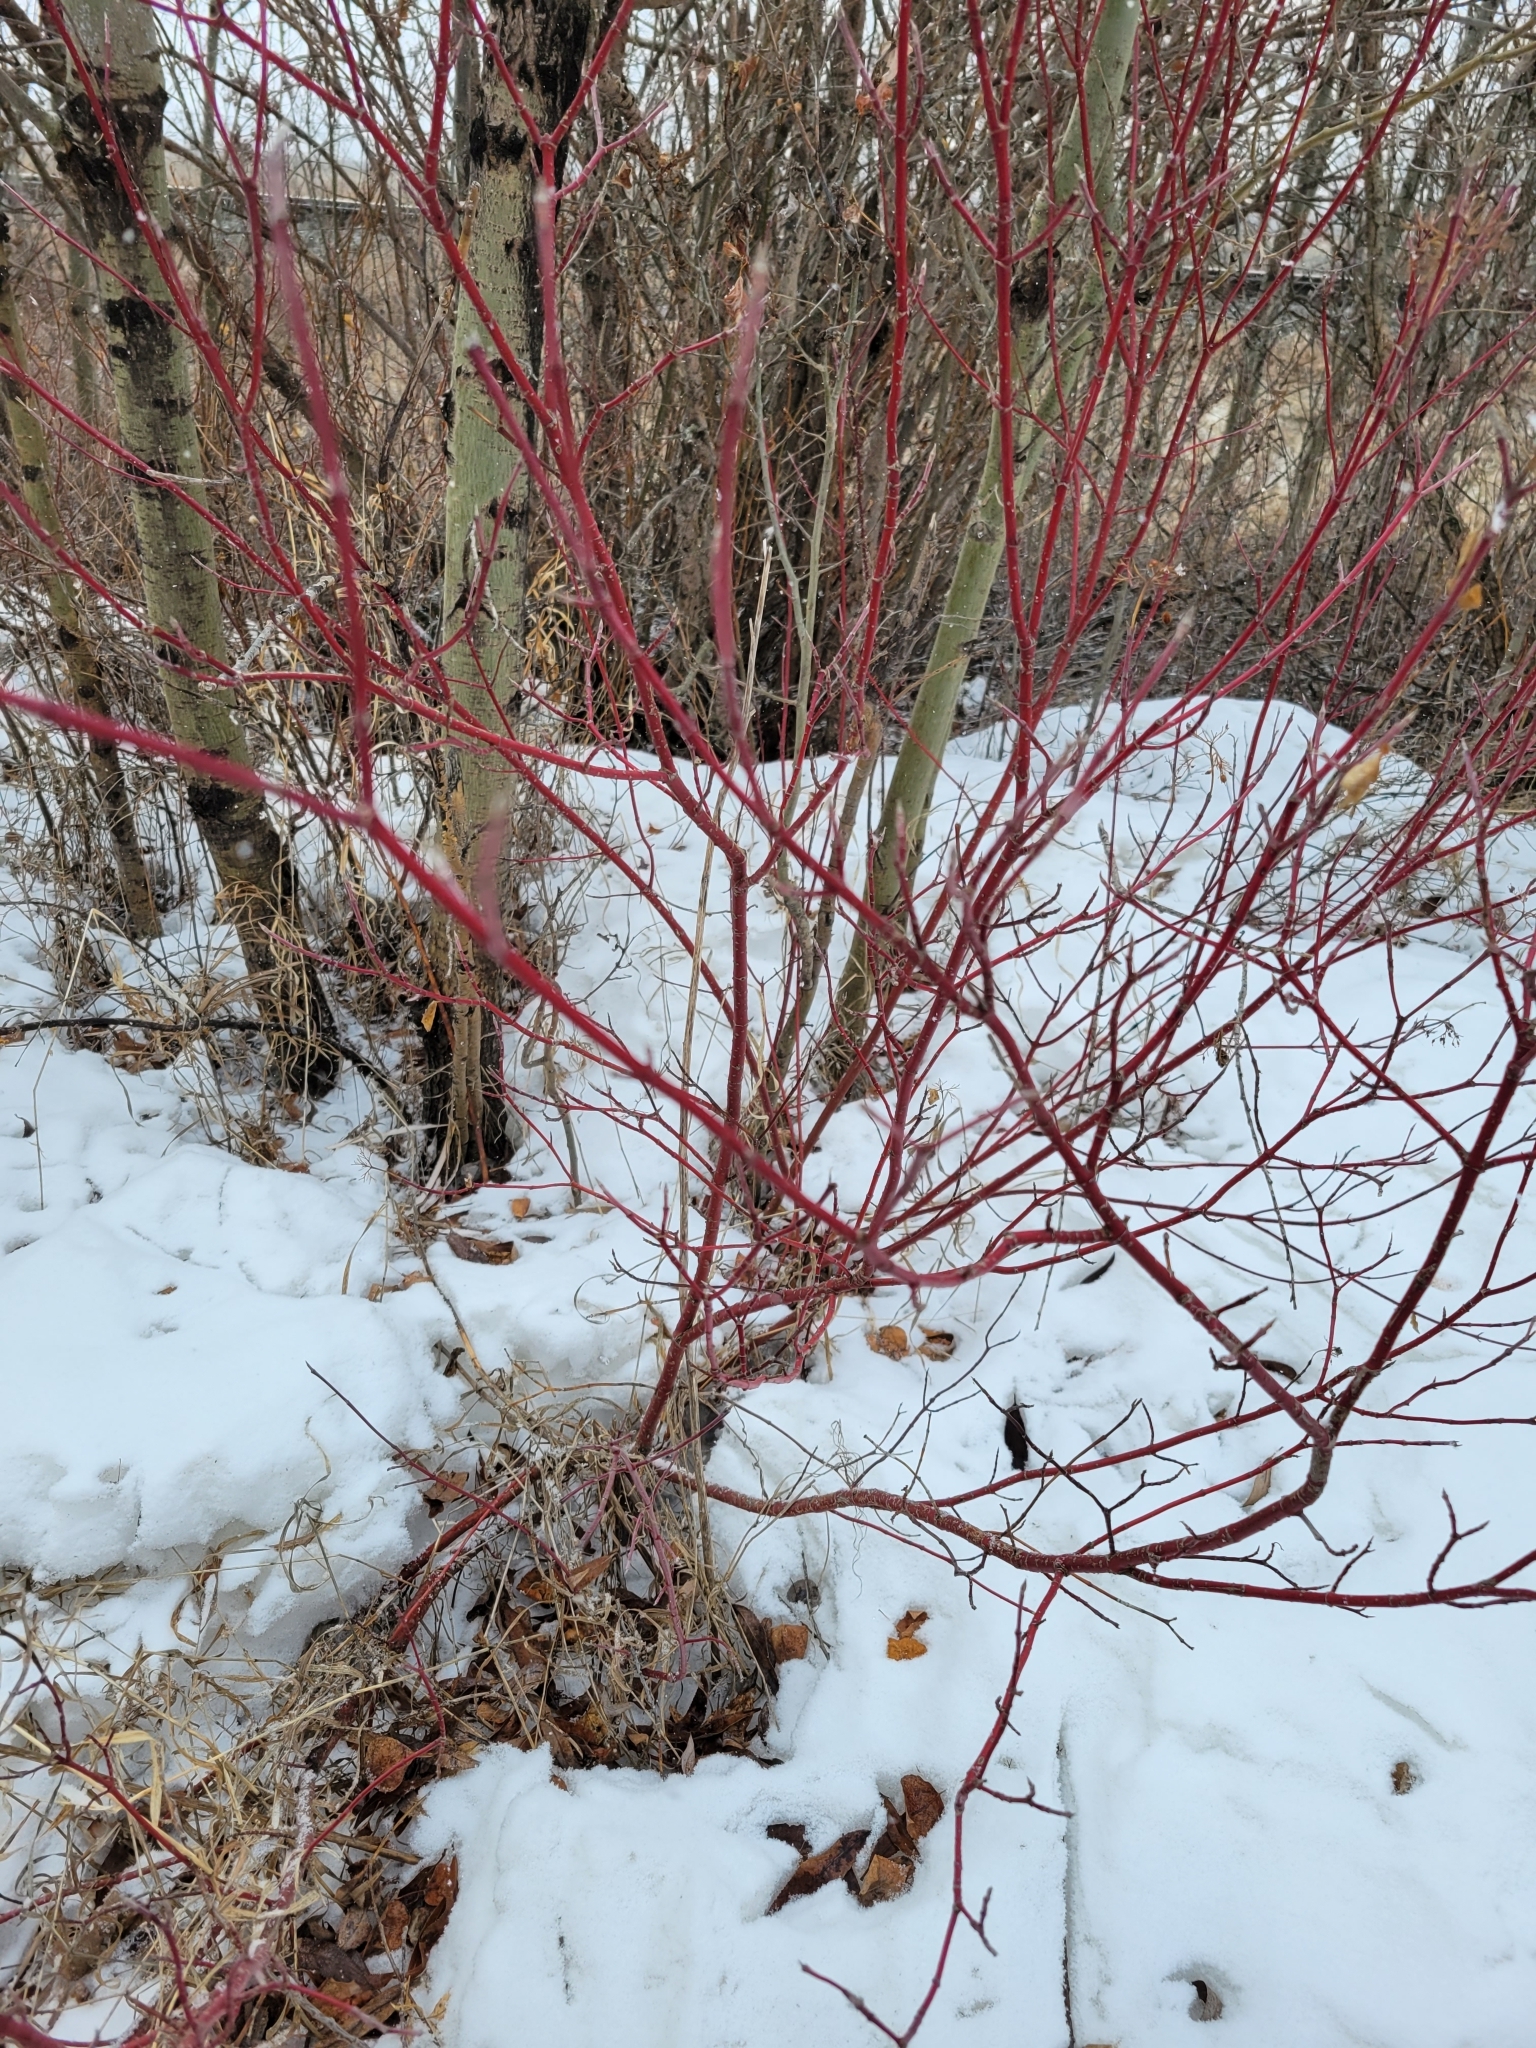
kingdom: Plantae
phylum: Tracheophyta
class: Magnoliopsida
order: Cornales
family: Cornaceae
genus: Cornus
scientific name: Cornus sericea
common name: Red-osier dogwood
